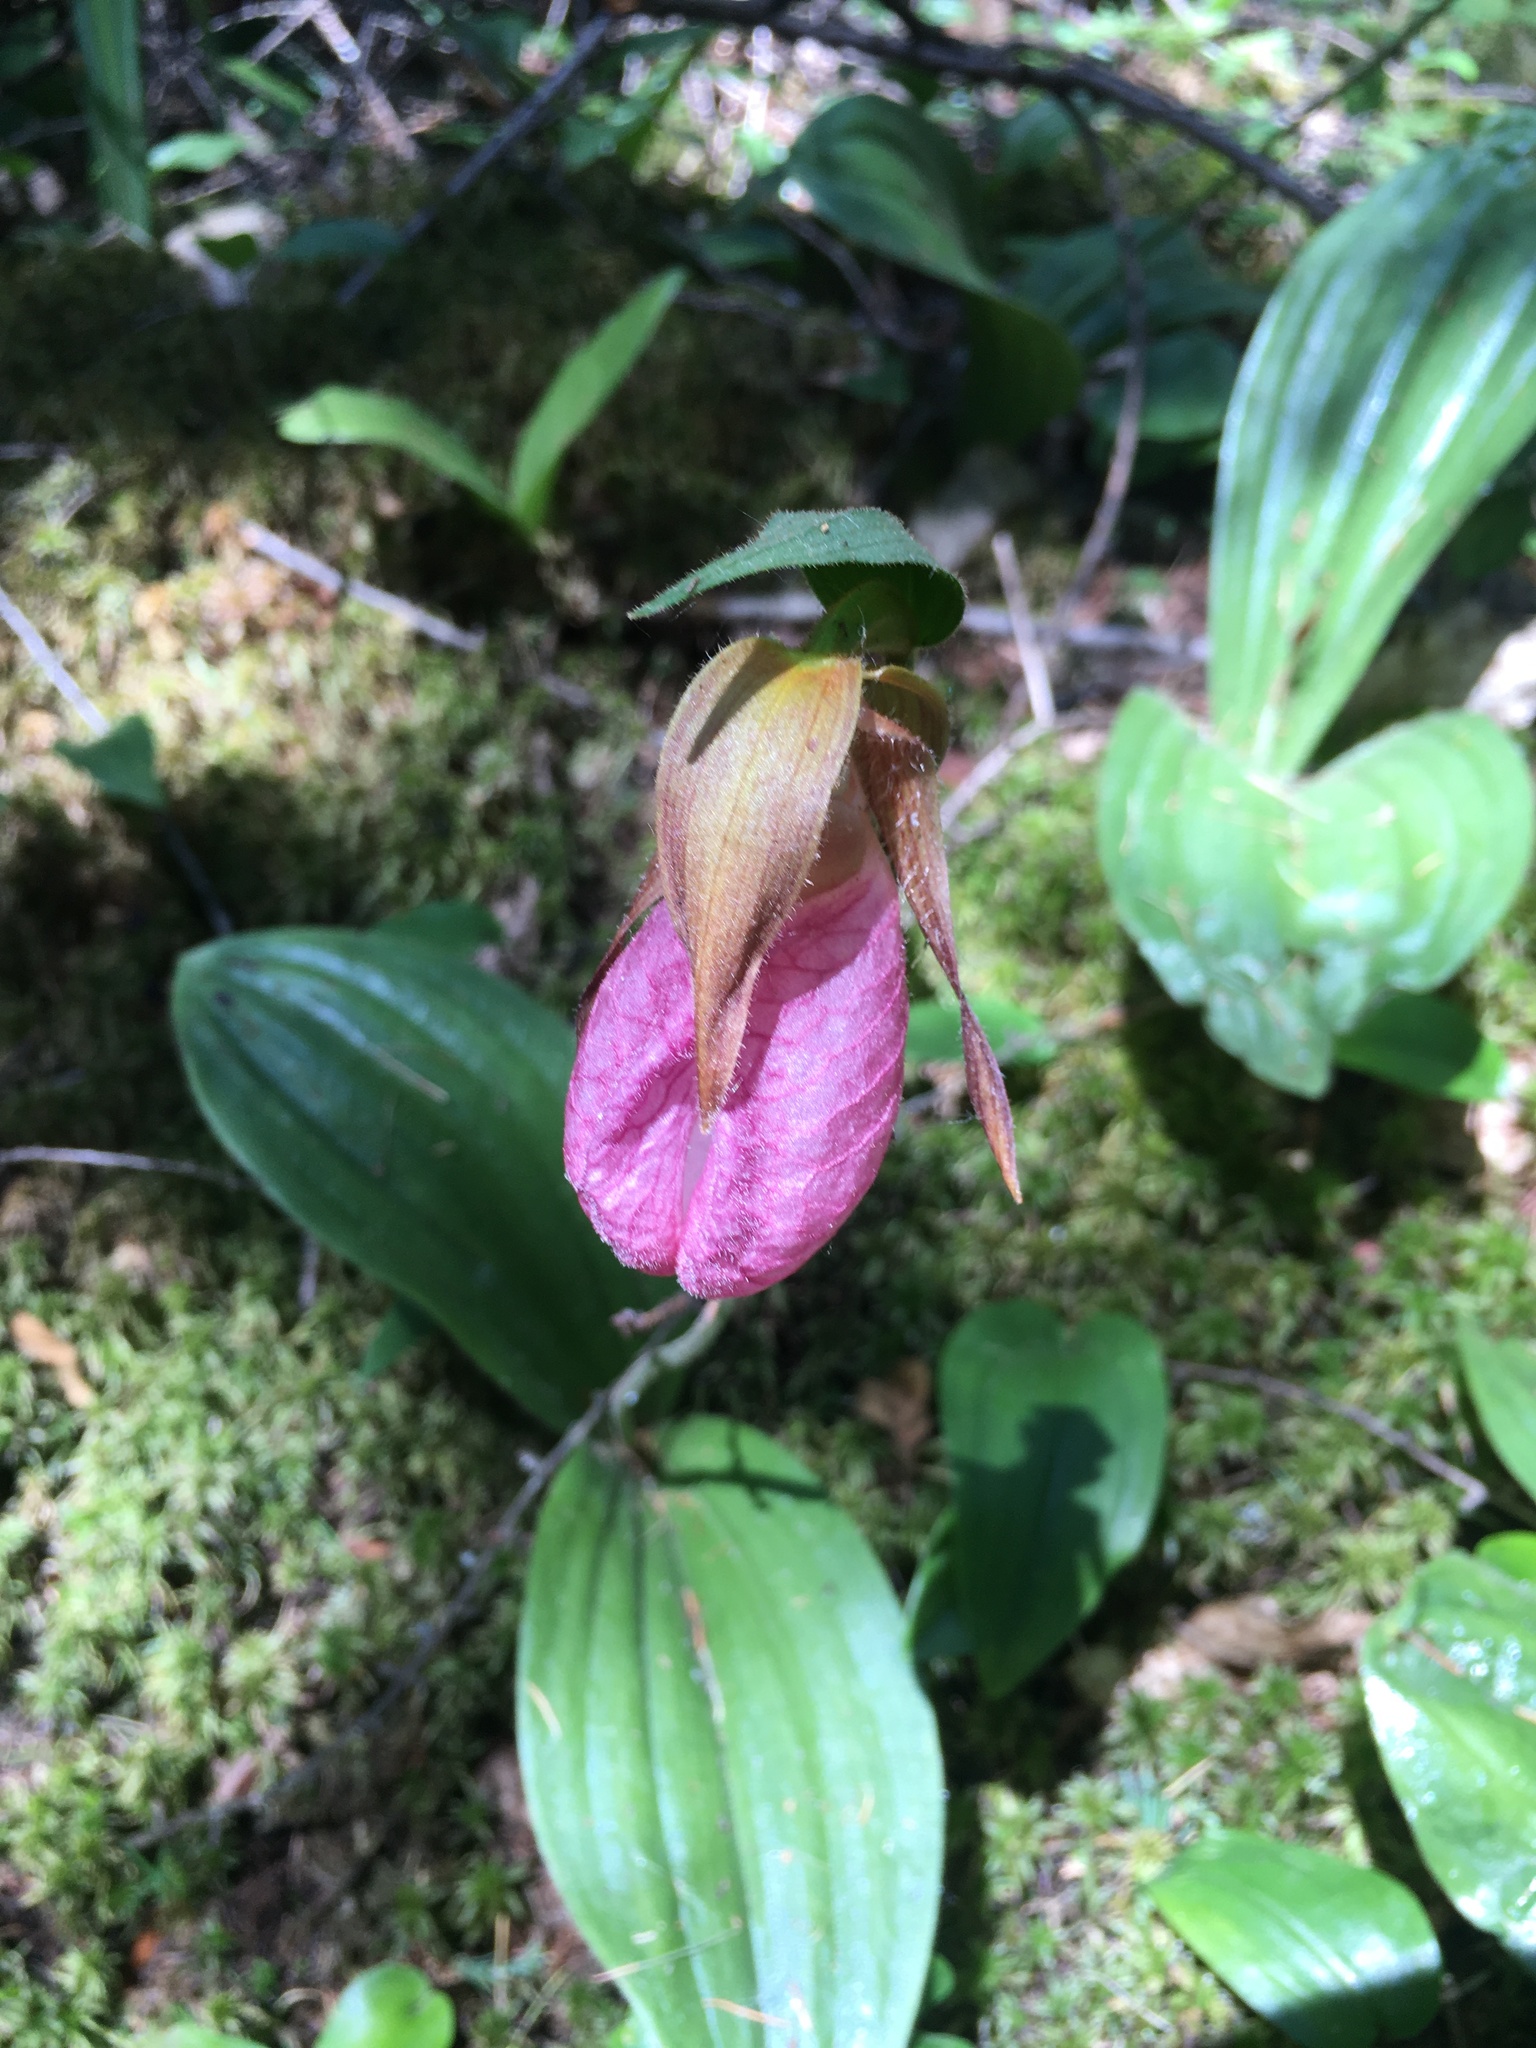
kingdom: Plantae
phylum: Tracheophyta
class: Liliopsida
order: Asparagales
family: Orchidaceae
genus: Cypripedium
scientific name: Cypripedium acaule
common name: Pink lady's-slipper
